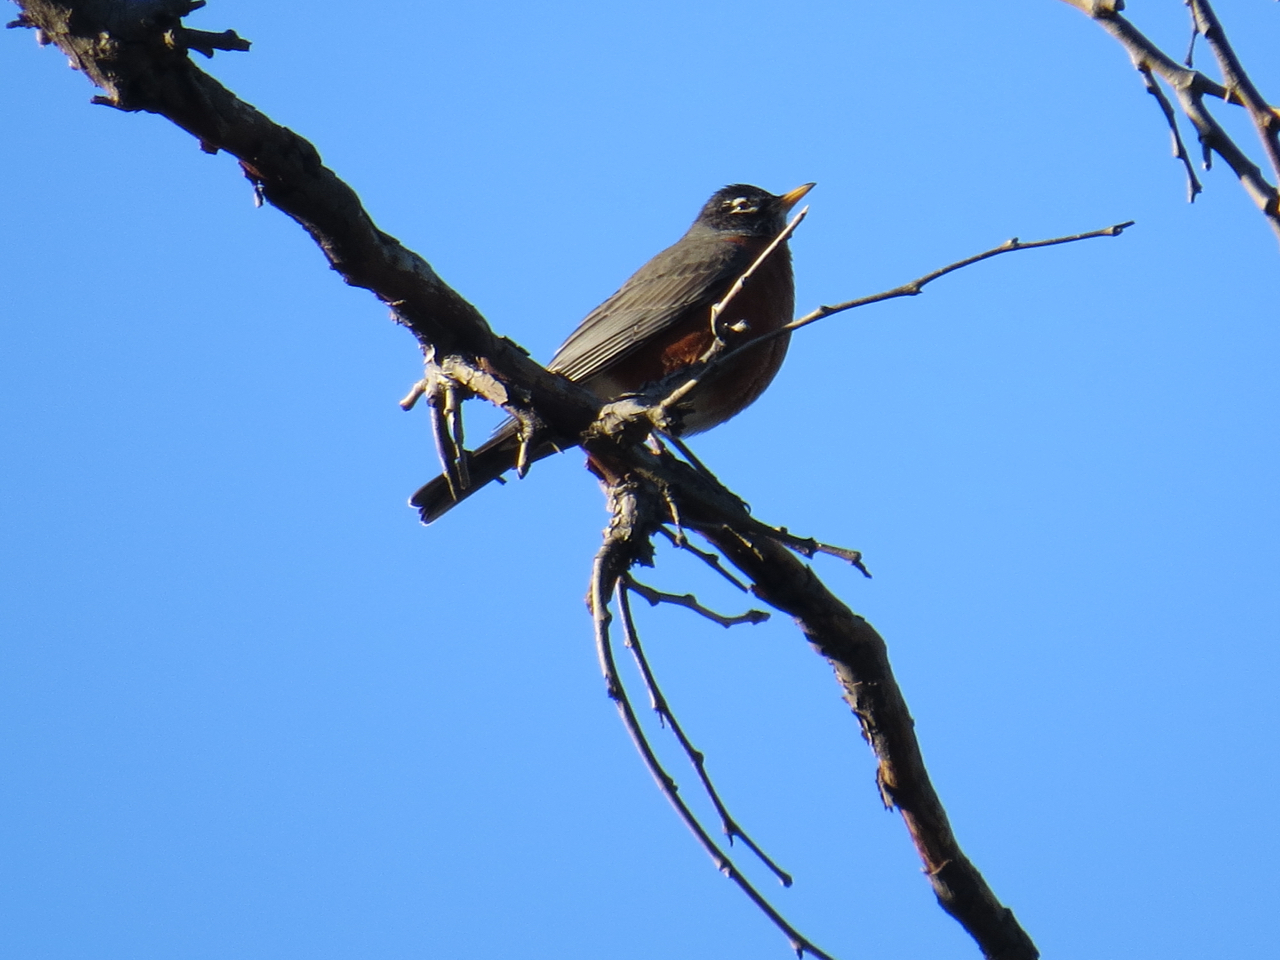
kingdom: Animalia
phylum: Chordata
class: Aves
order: Passeriformes
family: Turdidae
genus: Turdus
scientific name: Turdus migratorius
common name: American robin
